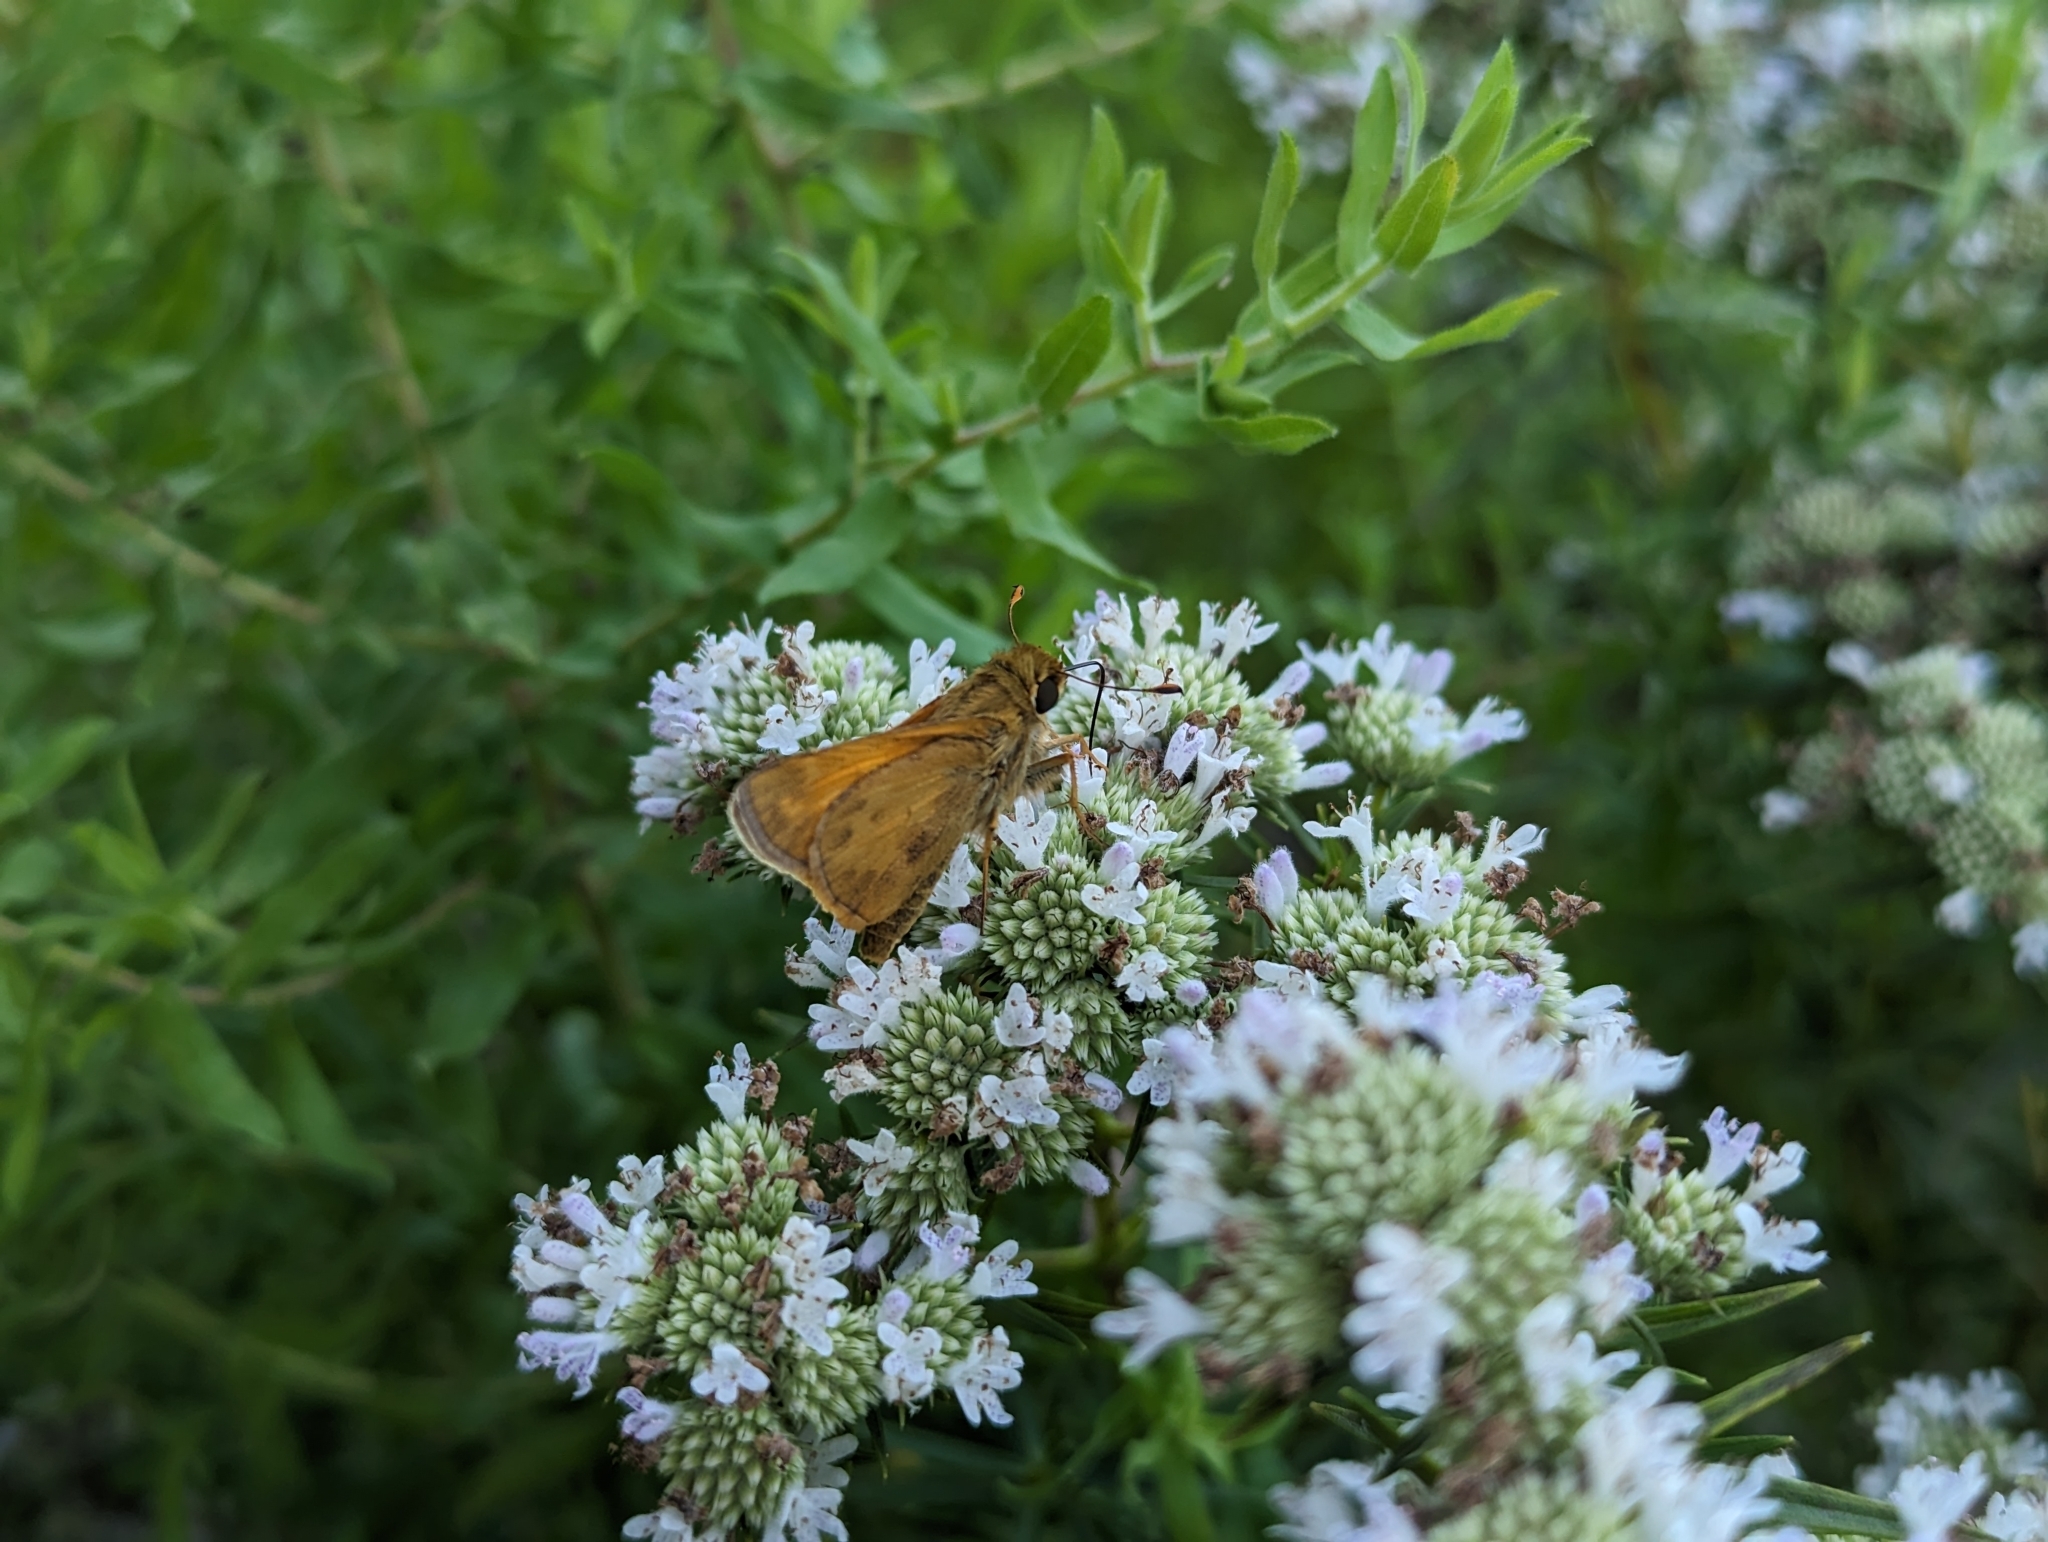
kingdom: Animalia
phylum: Arthropoda
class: Insecta
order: Lepidoptera
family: Hesperiidae
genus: Atalopedes
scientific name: Atalopedes
